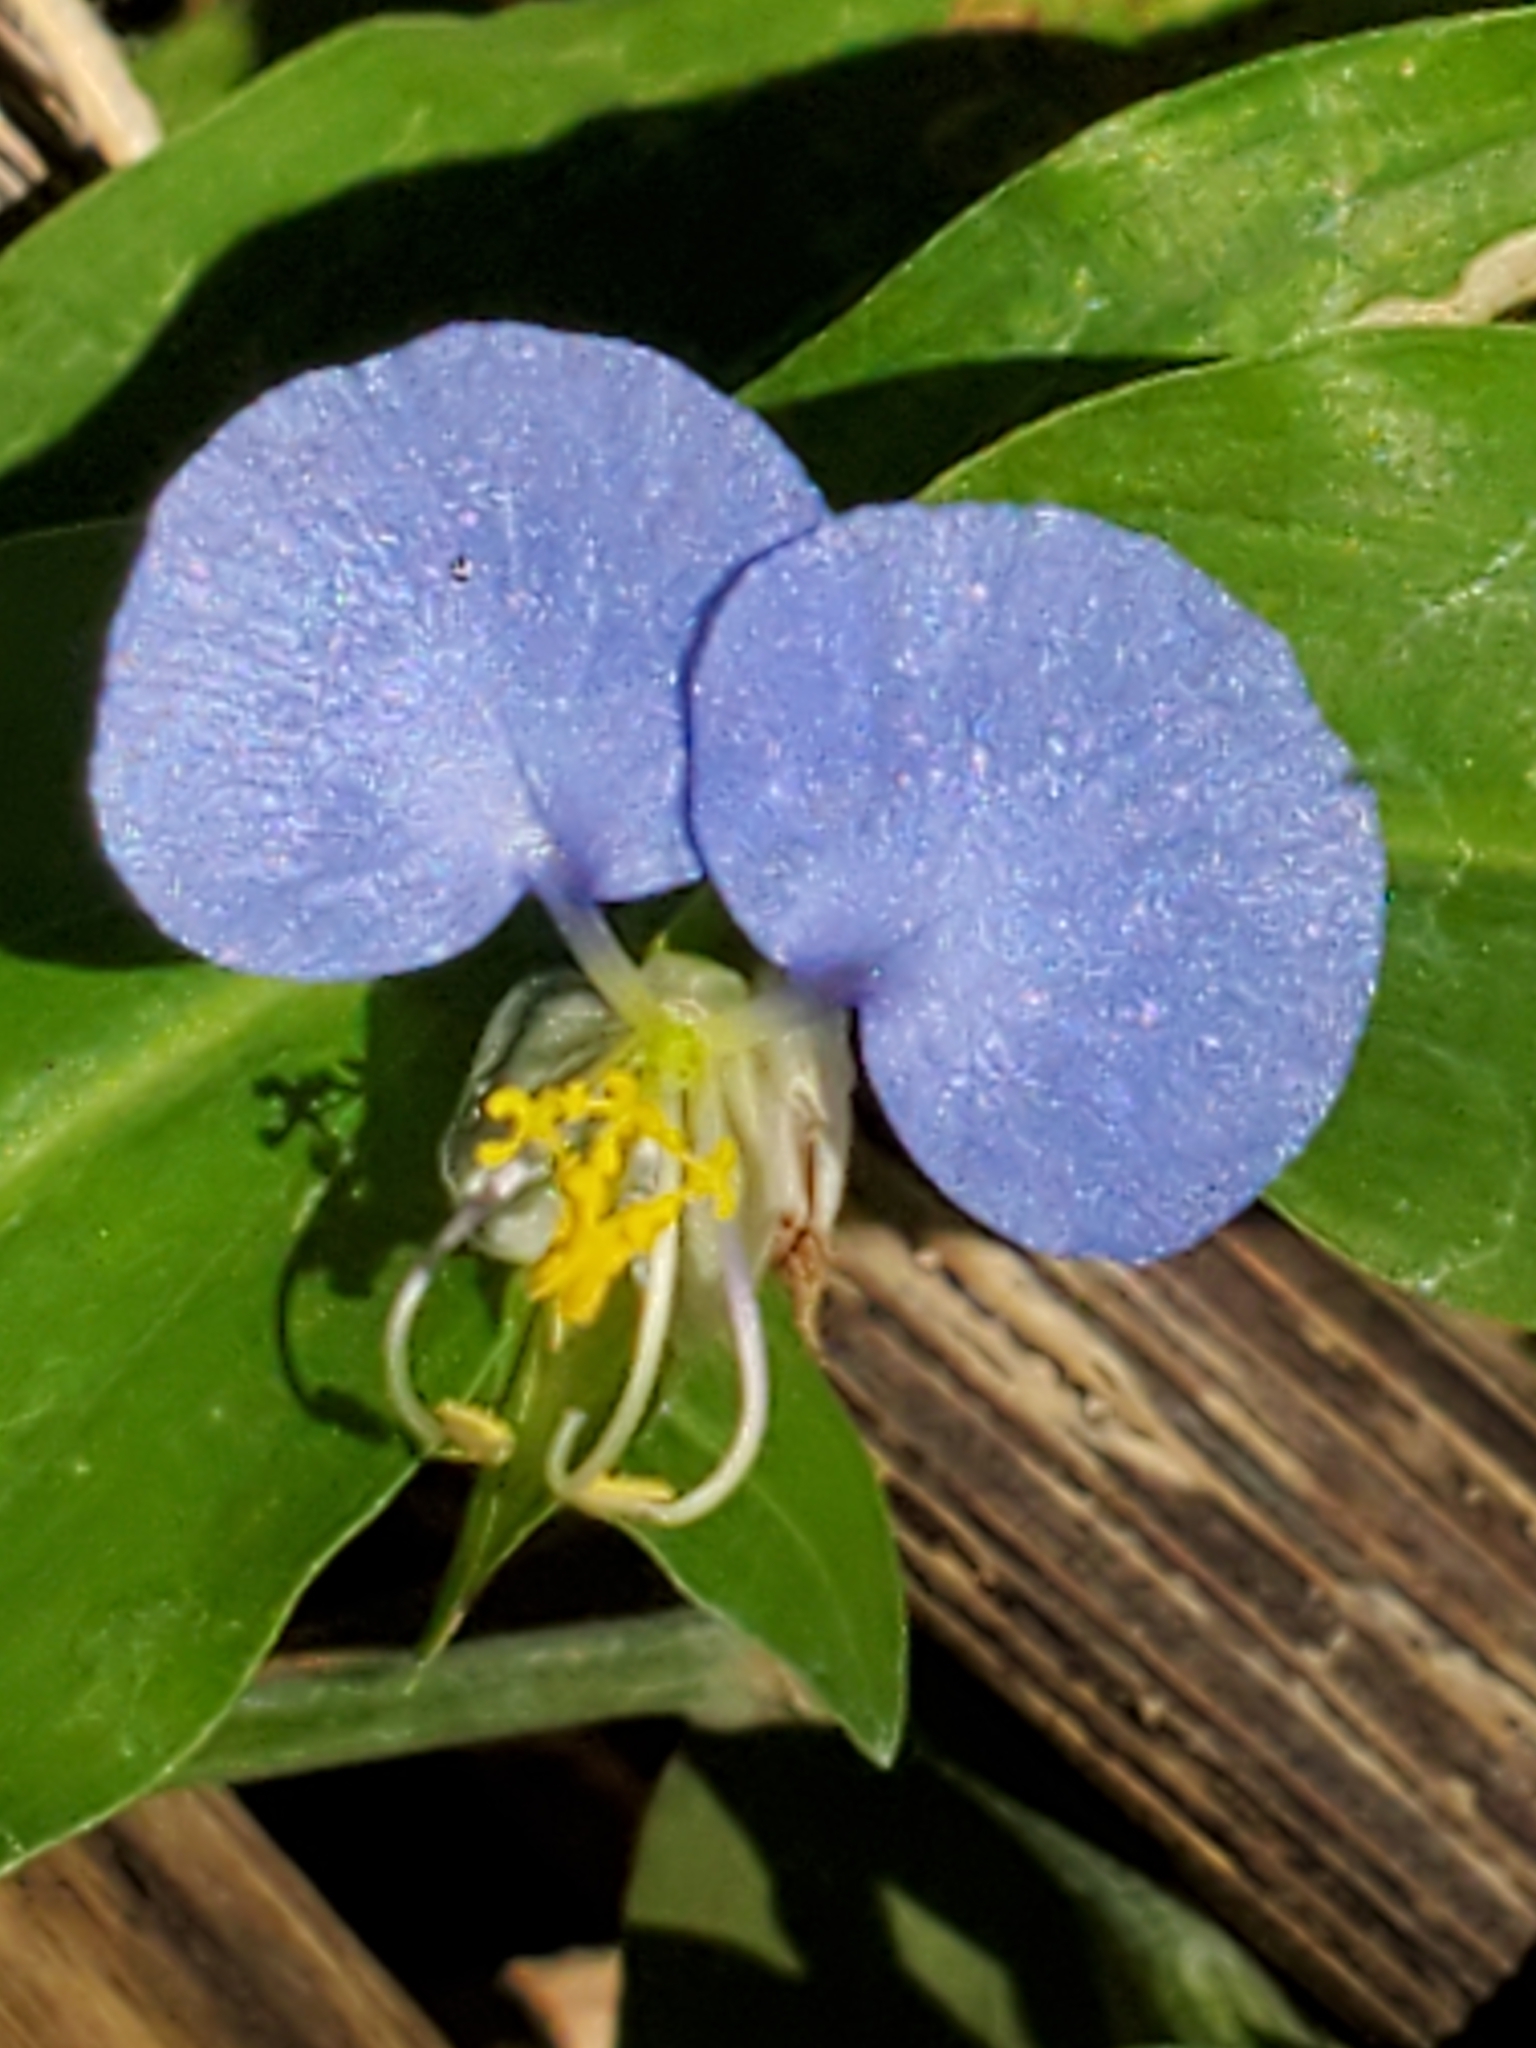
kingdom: Plantae
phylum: Tracheophyta
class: Liliopsida
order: Commelinales
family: Commelinaceae
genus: Commelina
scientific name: Commelina erecta
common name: Blousel blommetjie
